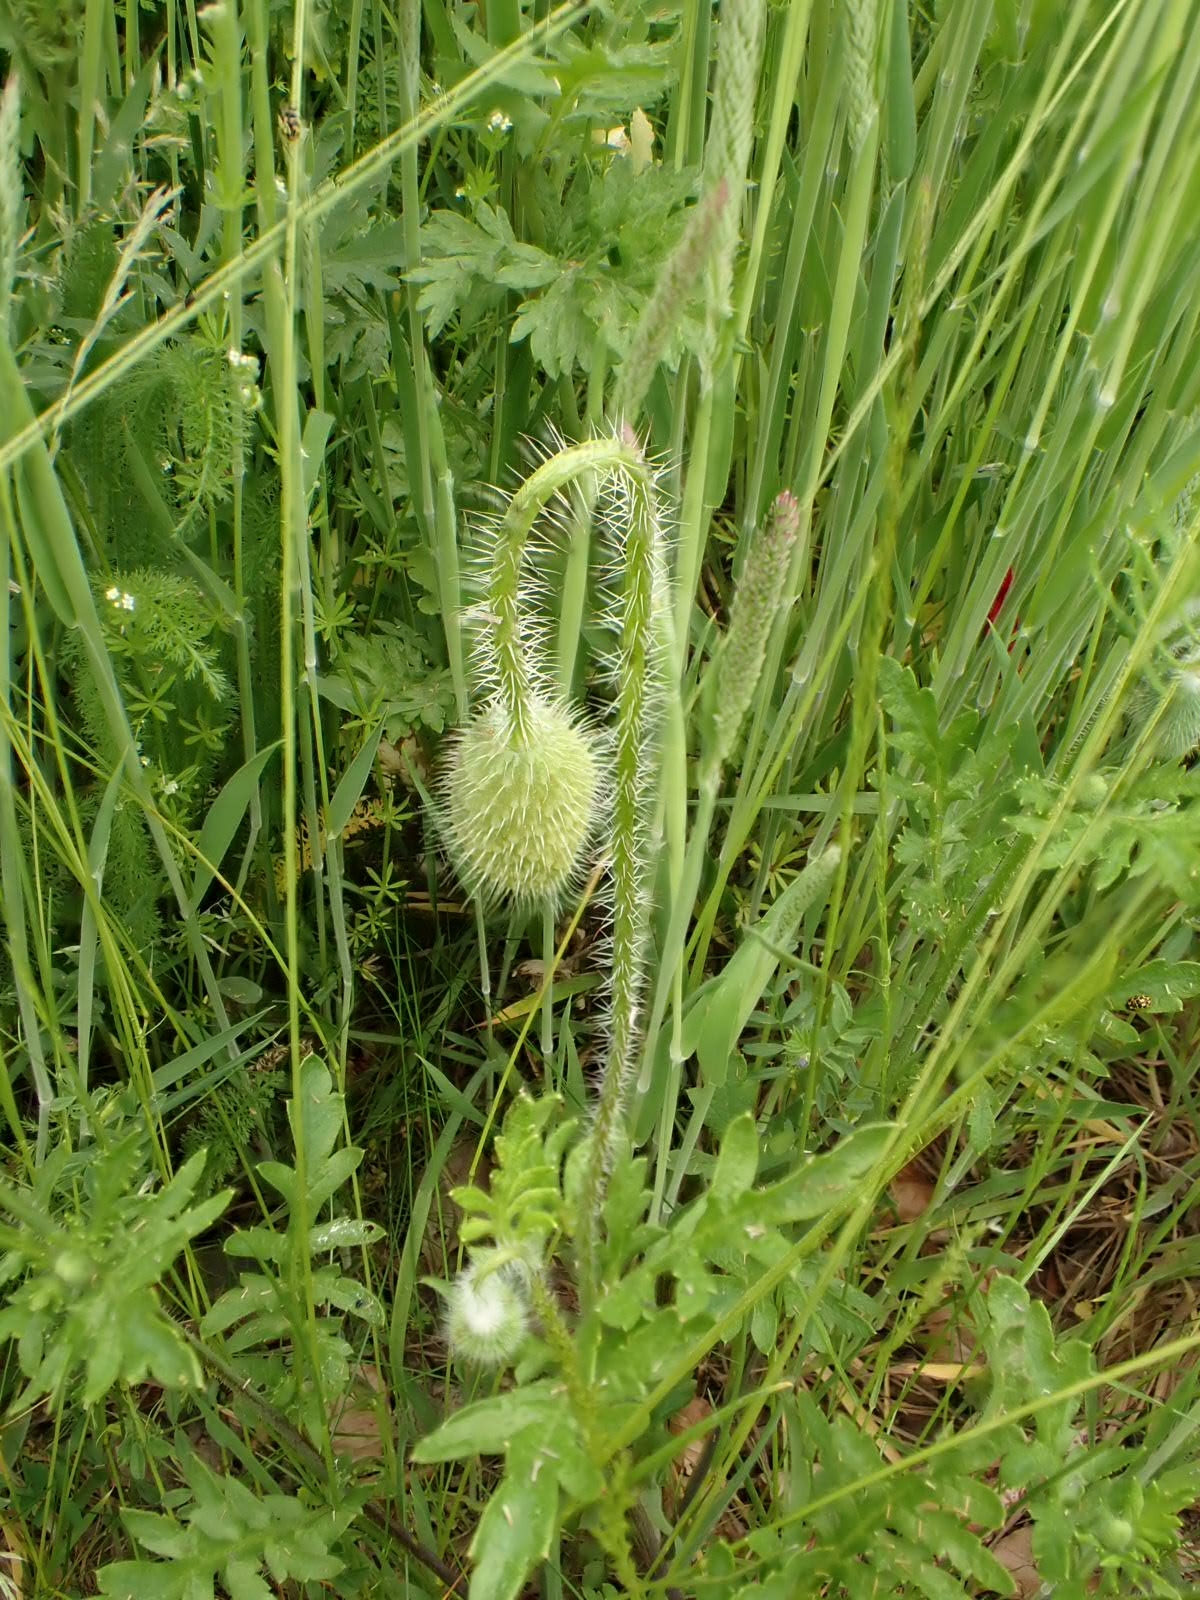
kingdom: Plantae
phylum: Tracheophyta
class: Magnoliopsida
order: Ranunculales
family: Papaveraceae
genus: Papaver
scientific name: Papaver rhoeas
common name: Corn poppy
